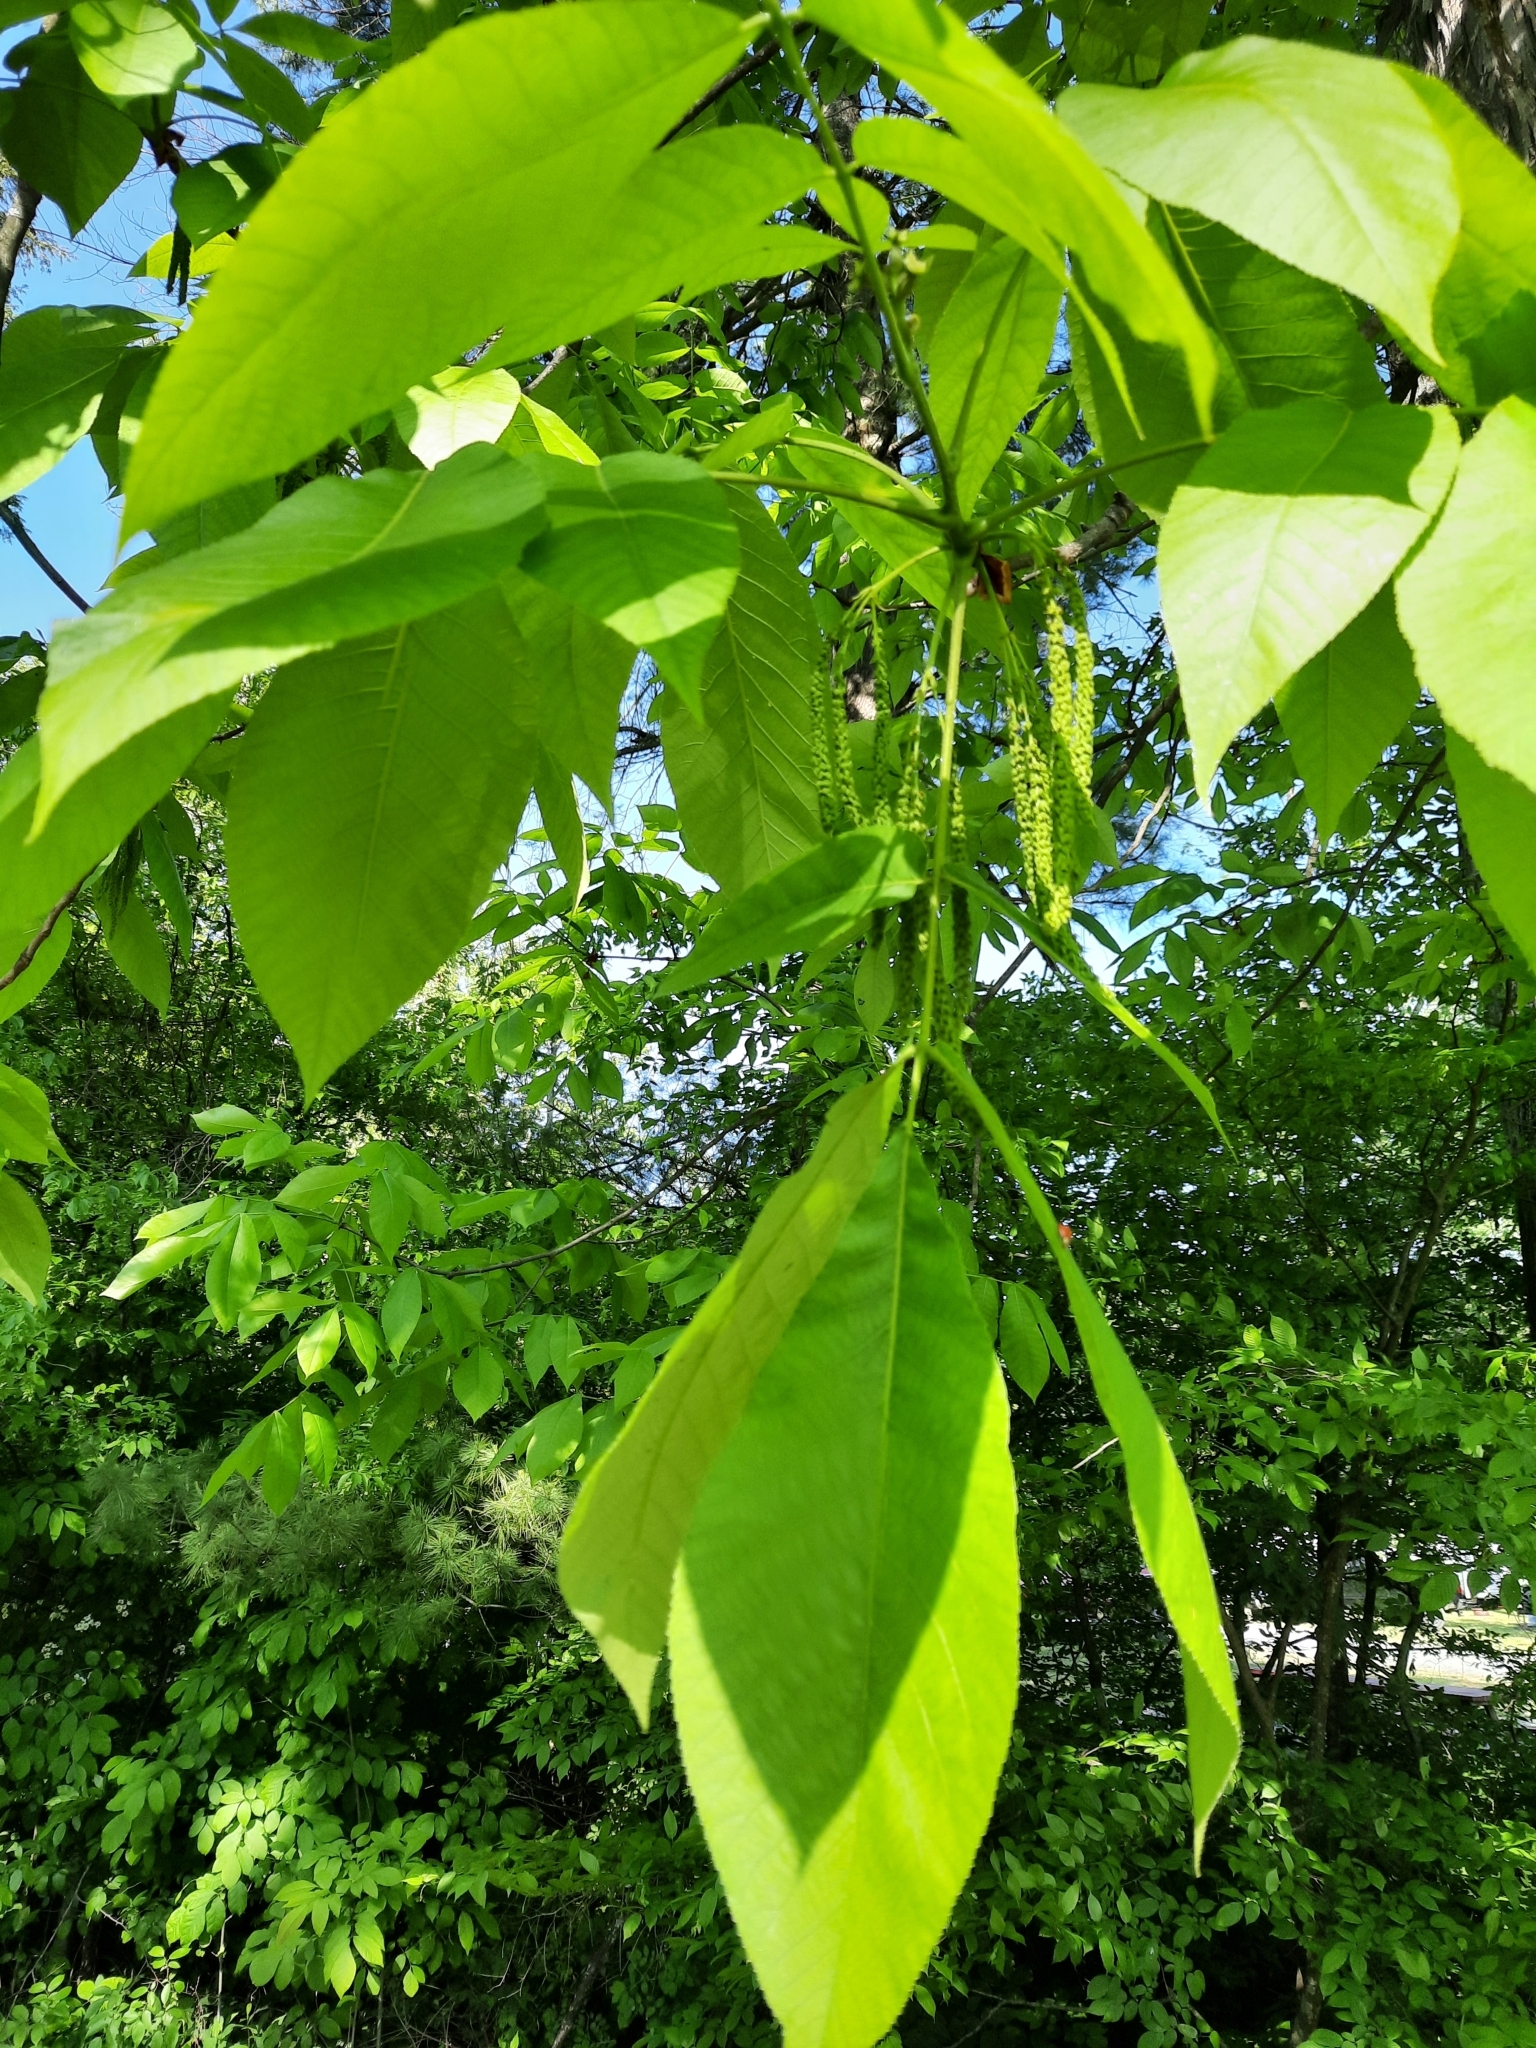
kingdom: Plantae
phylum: Tracheophyta
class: Magnoliopsida
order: Fagales
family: Juglandaceae
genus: Carya
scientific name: Carya ovata
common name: Shagbark hickory
